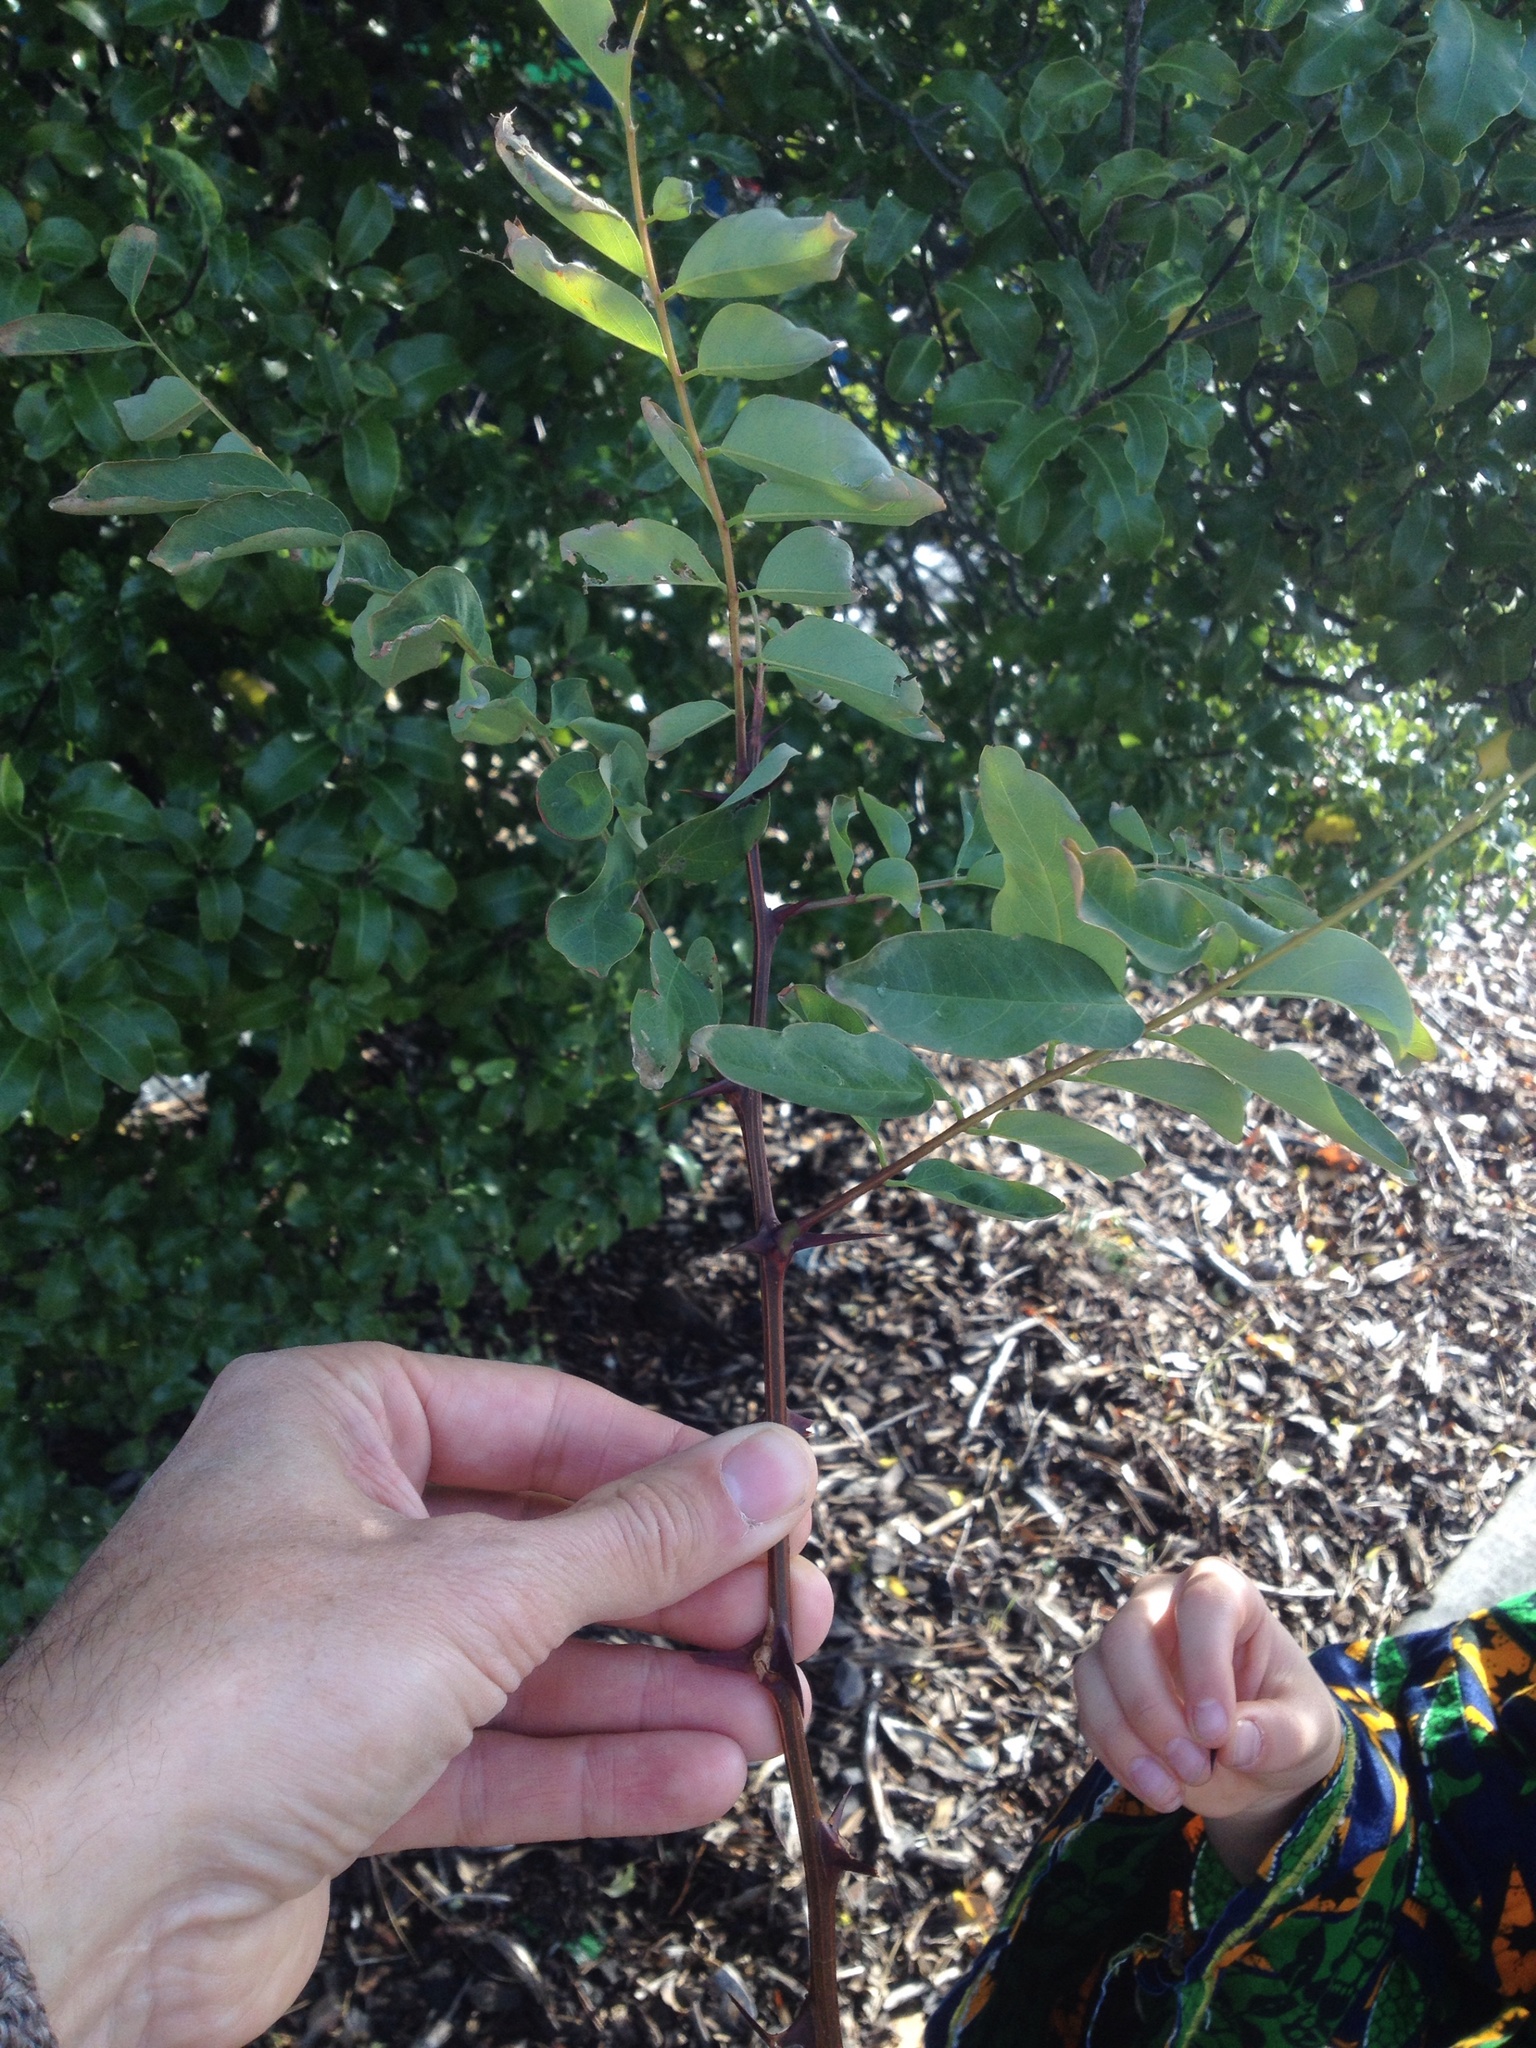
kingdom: Plantae
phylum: Tracheophyta
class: Magnoliopsida
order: Fabales
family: Fabaceae
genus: Robinia
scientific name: Robinia pseudoacacia
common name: Black locust
